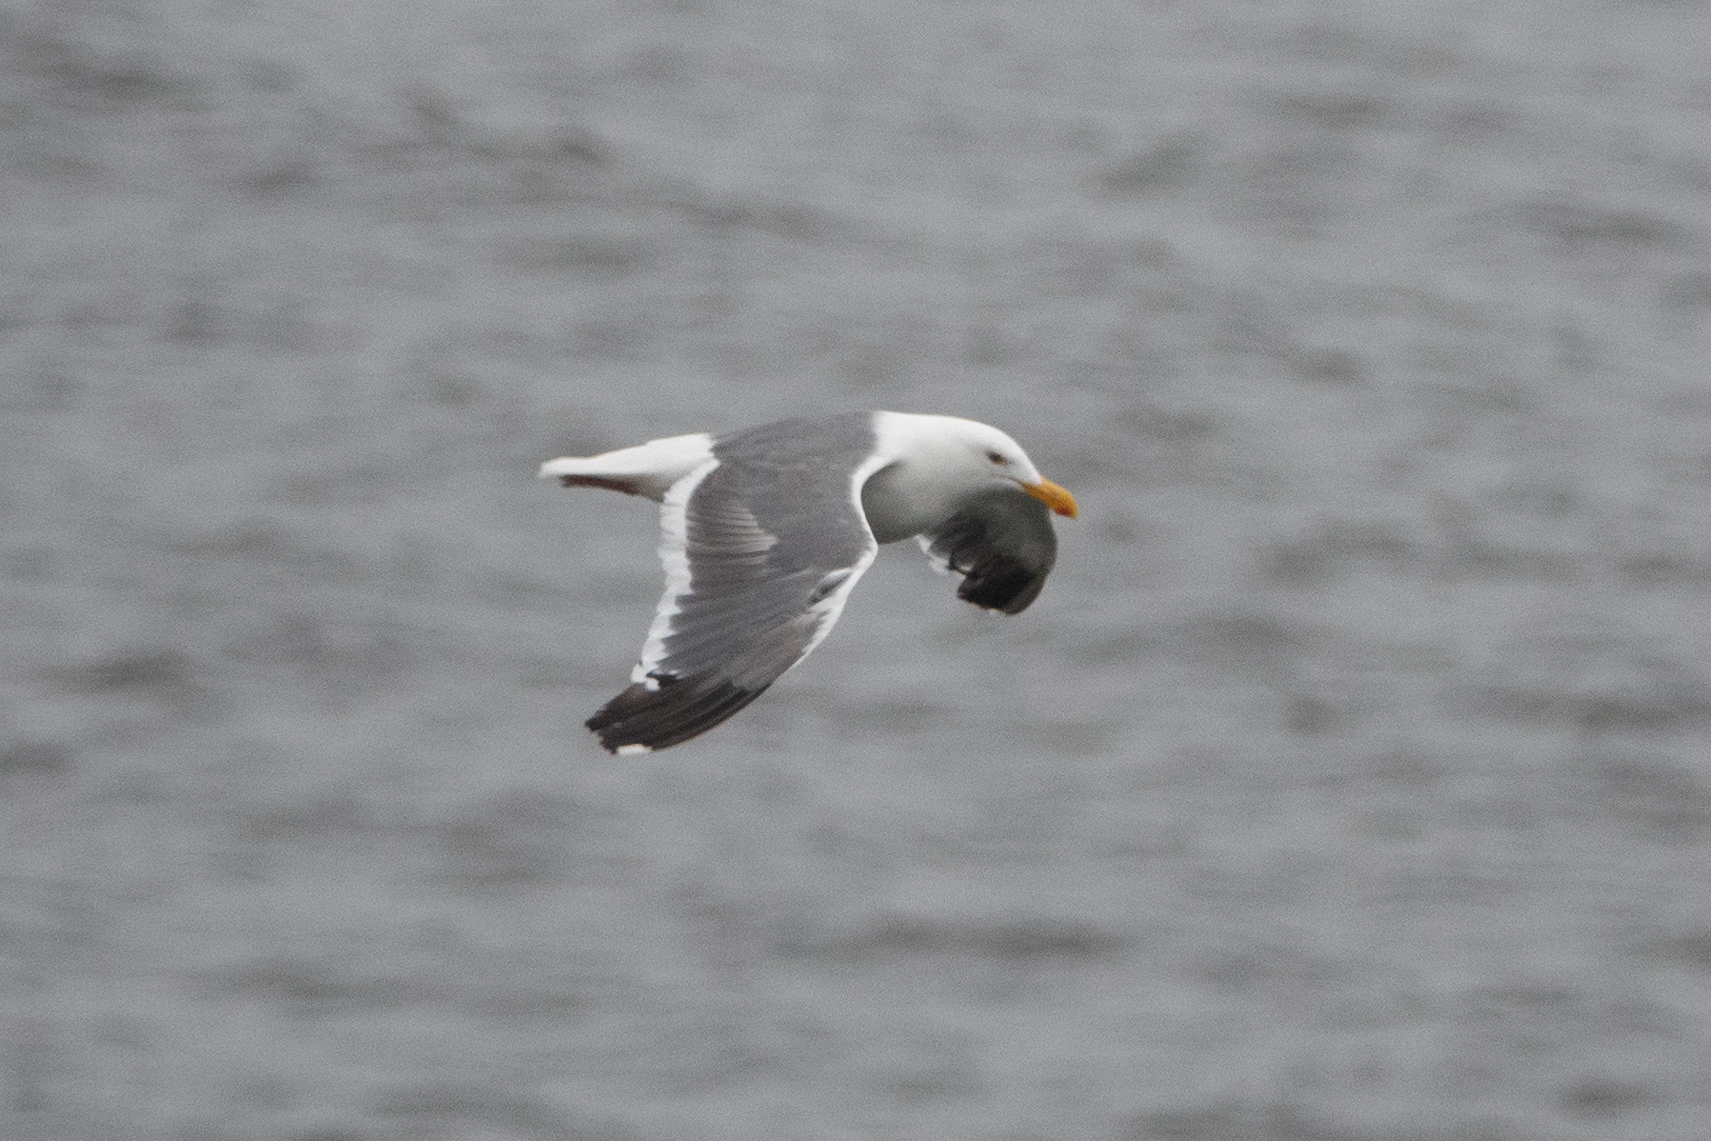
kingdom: Animalia
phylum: Chordata
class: Aves
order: Charadriiformes
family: Laridae
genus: Larus
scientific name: Larus occidentalis
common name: Western gull
